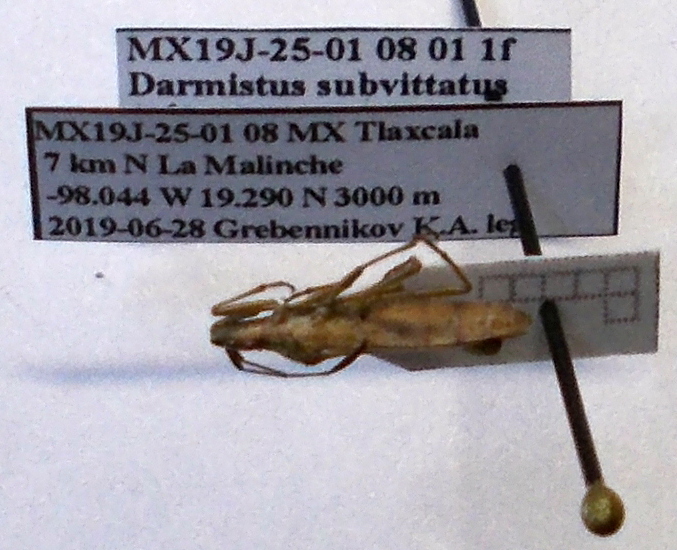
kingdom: Animalia
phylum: Arthropoda
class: Insecta
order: Hemiptera
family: Alydidae
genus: Darmistus
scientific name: Darmistus subvittatus
